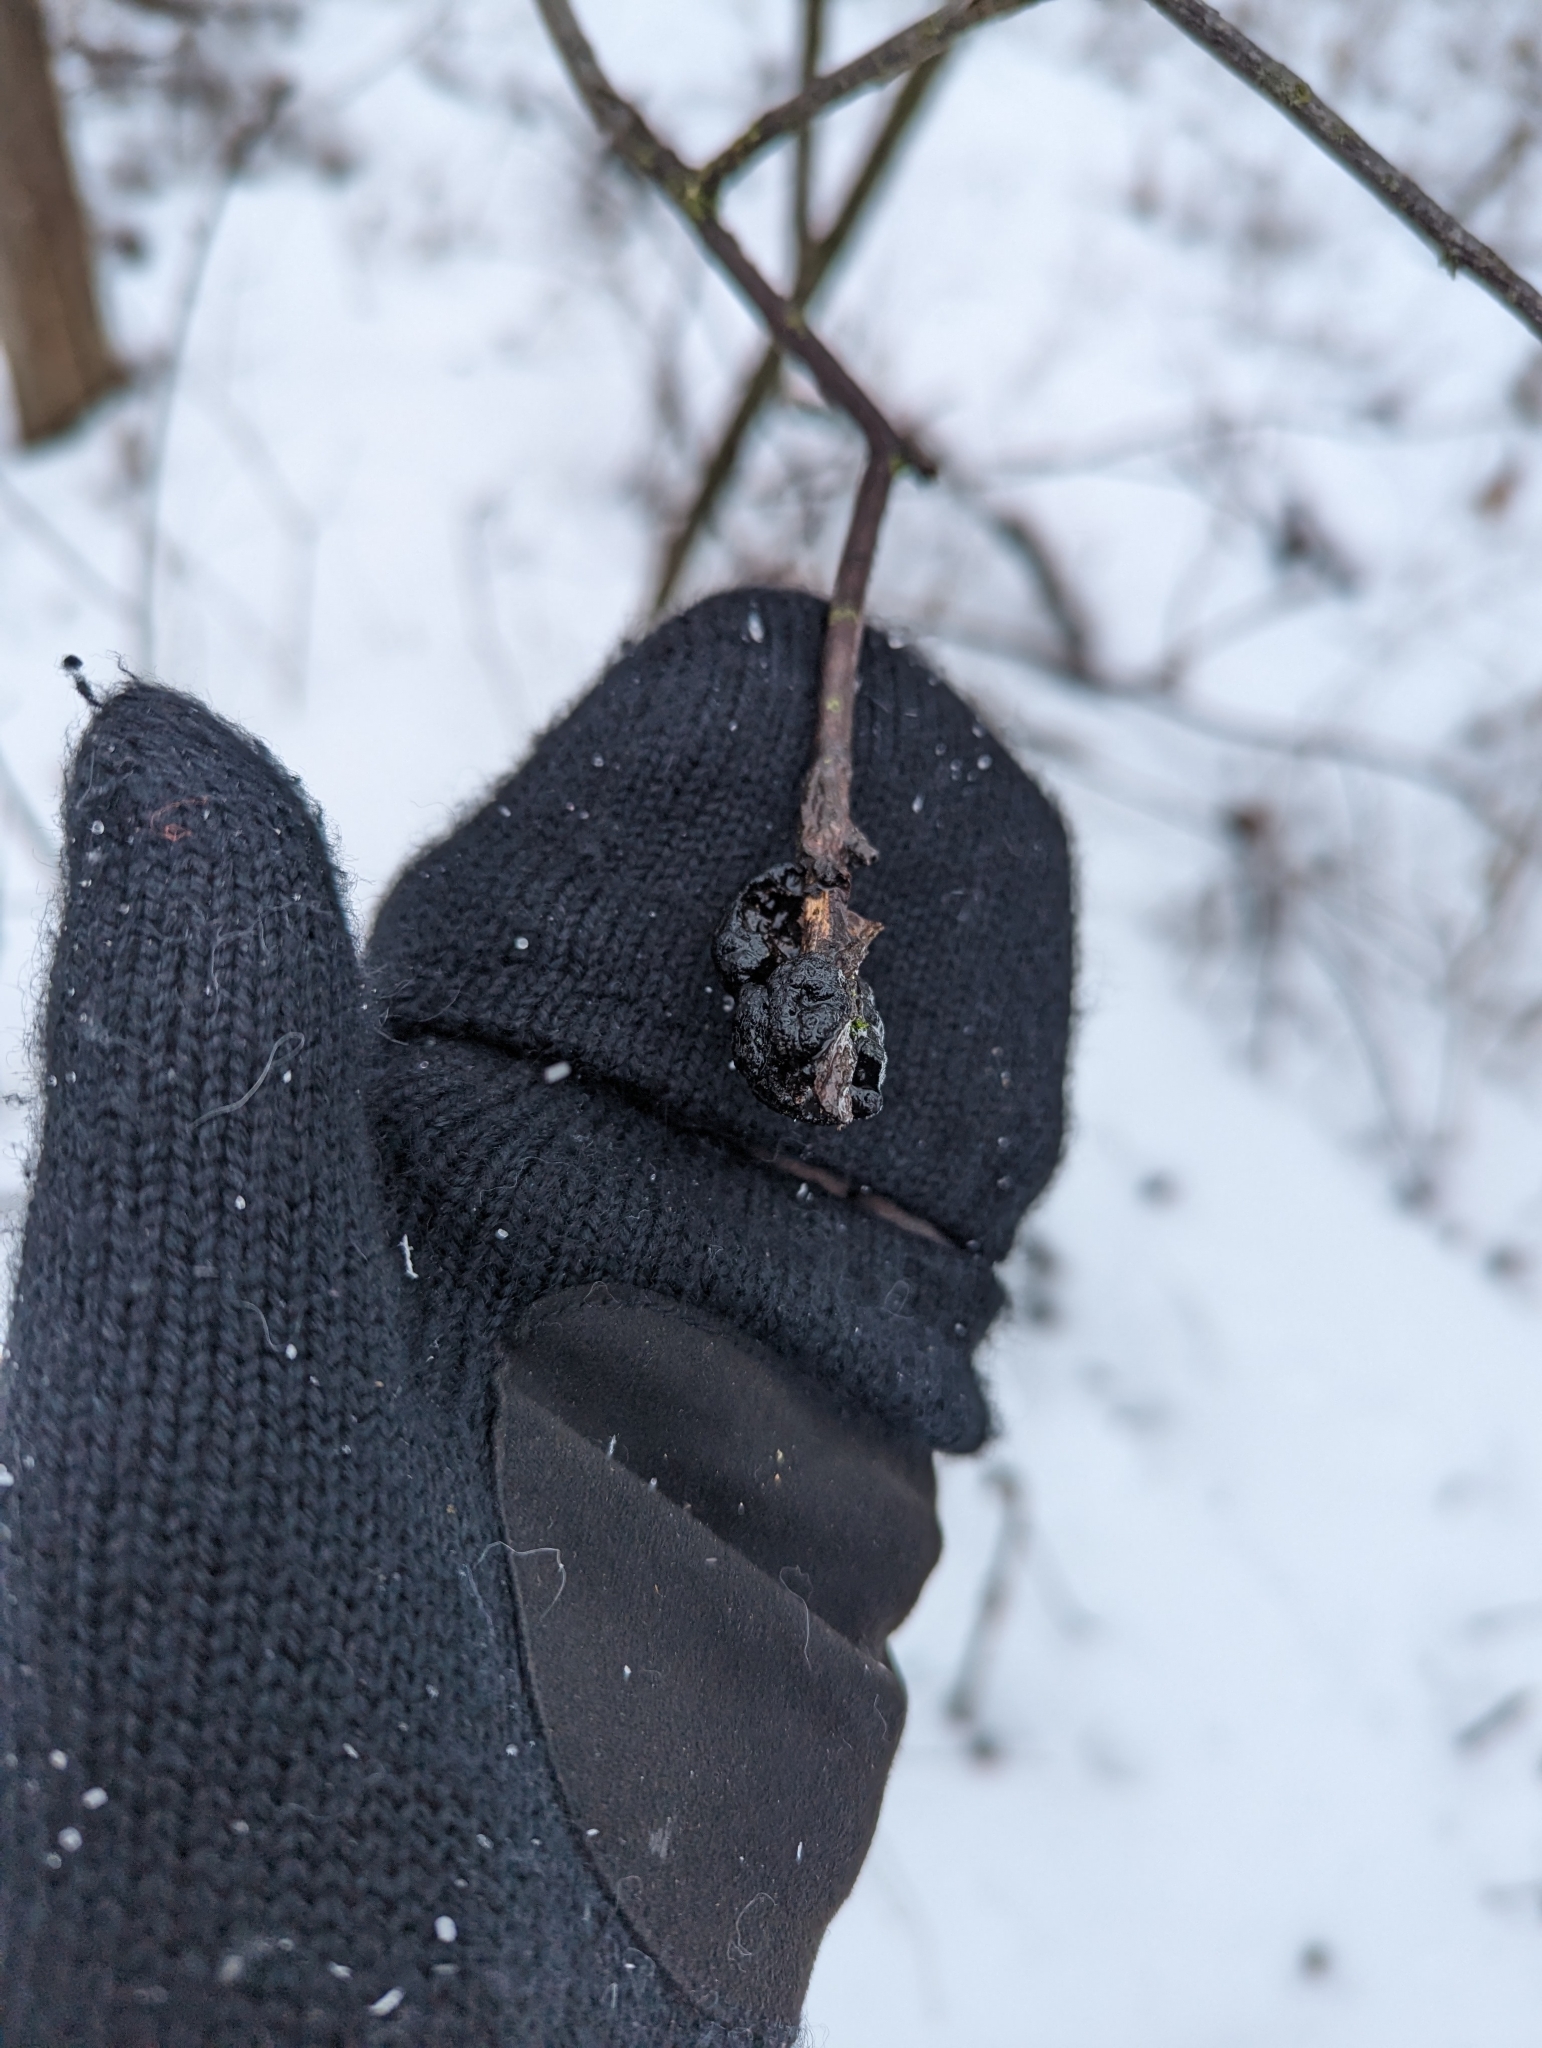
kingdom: Fungi
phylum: Ascomycota
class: Dothideomycetes
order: Venturiales
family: Venturiaceae
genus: Apiosporina
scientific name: Apiosporina morbosa
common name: Black knot
